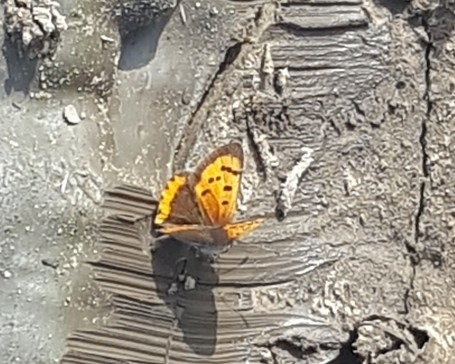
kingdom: Animalia
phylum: Arthropoda
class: Insecta
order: Lepidoptera
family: Lycaenidae
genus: Lycaena
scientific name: Lycaena phlaeas
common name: Small copper
